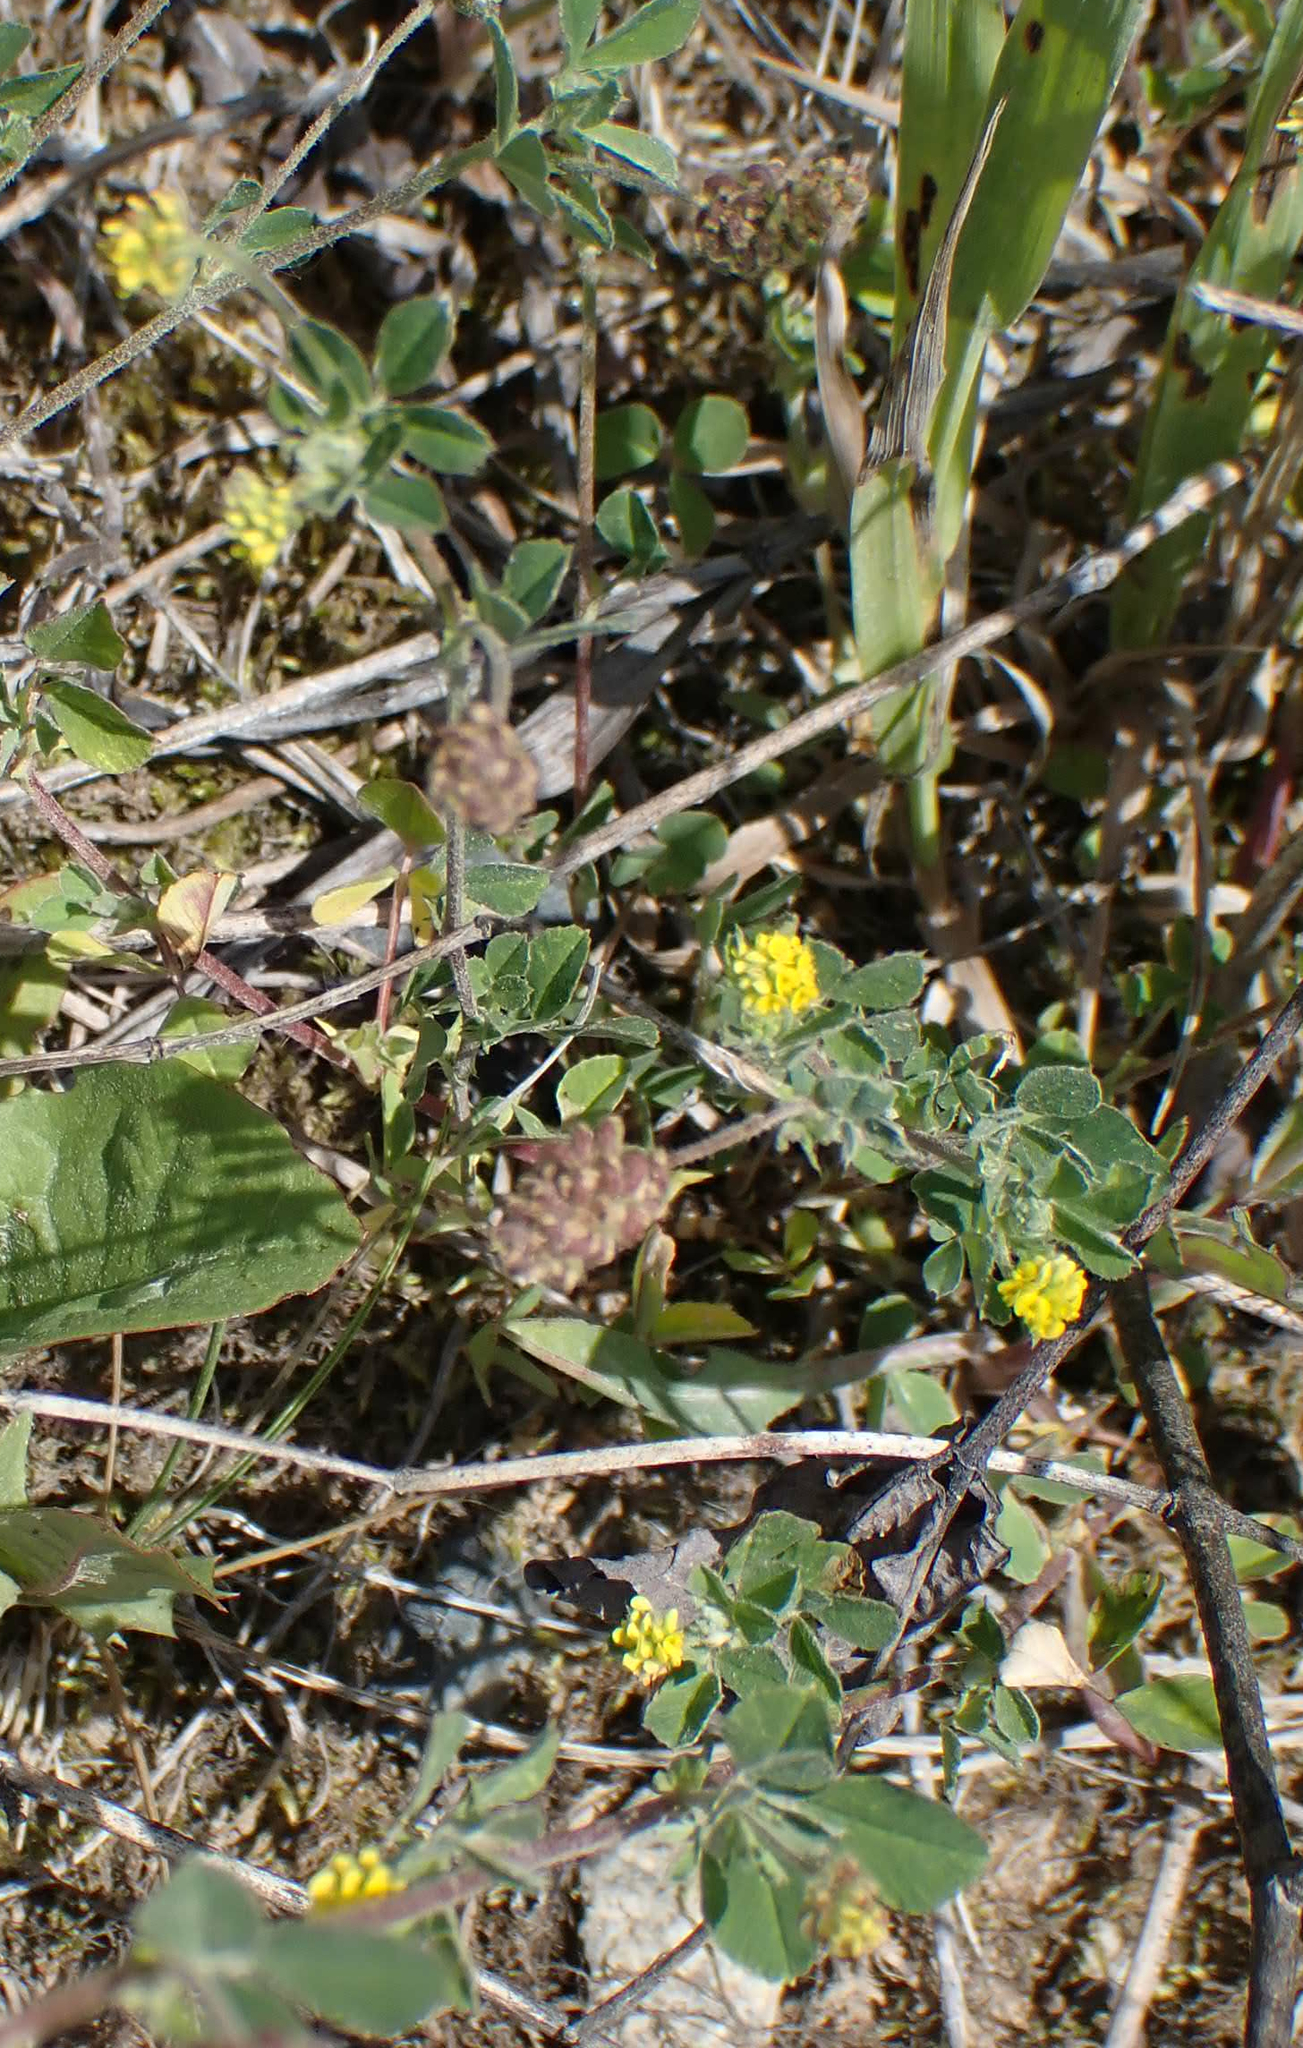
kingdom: Plantae
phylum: Tracheophyta
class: Magnoliopsida
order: Fabales
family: Fabaceae
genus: Medicago
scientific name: Medicago lupulina
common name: Black medick
